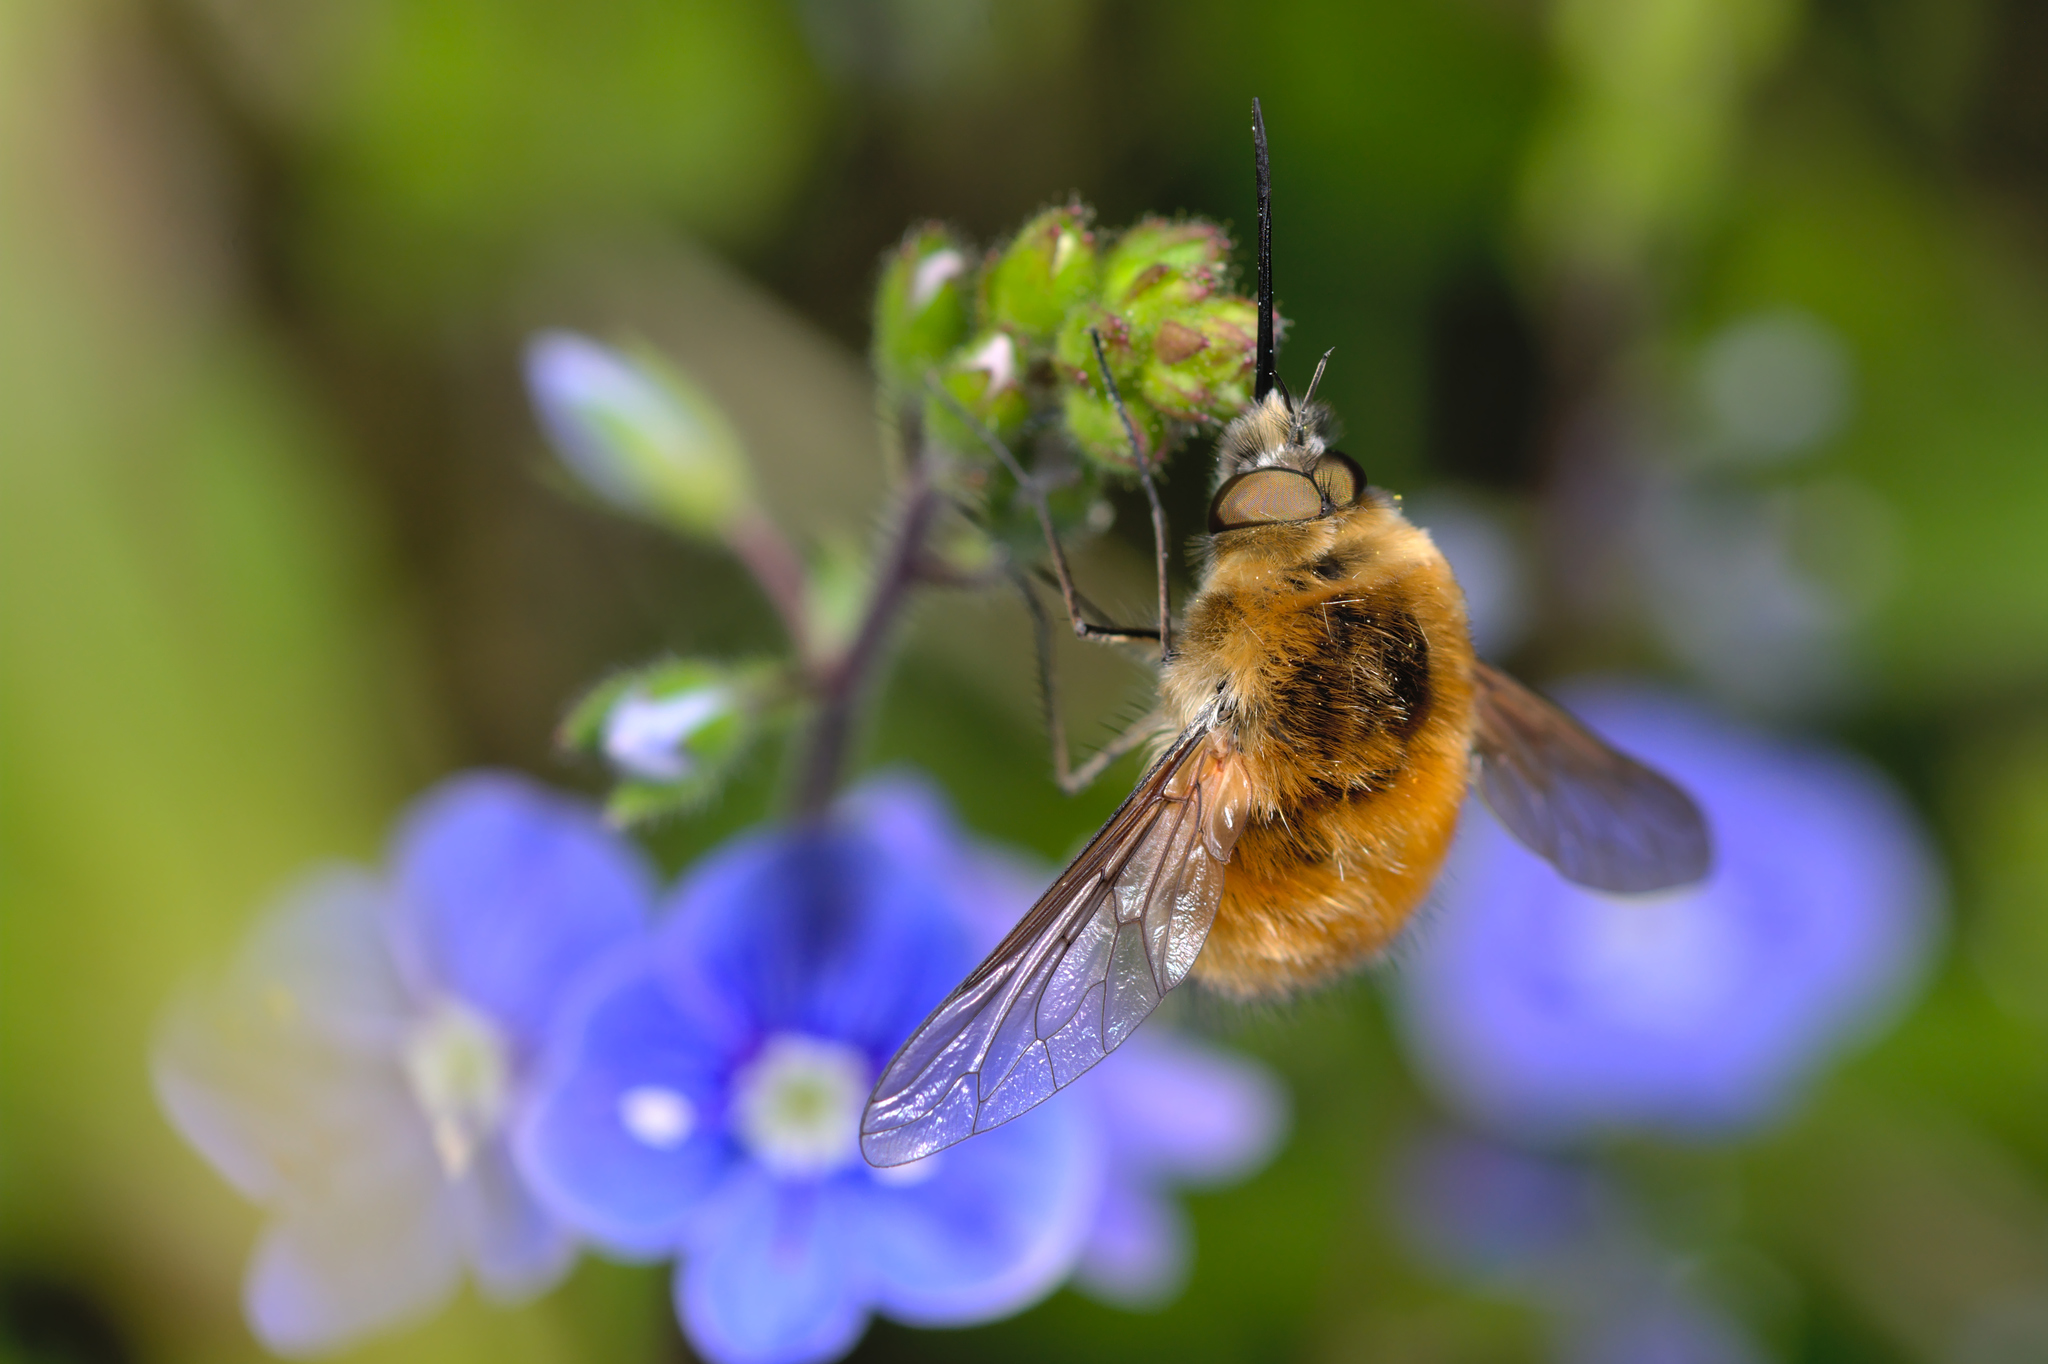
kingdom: Animalia
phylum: Arthropoda
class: Insecta
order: Diptera
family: Bombyliidae
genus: Bombylius
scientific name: Bombylius venosus
